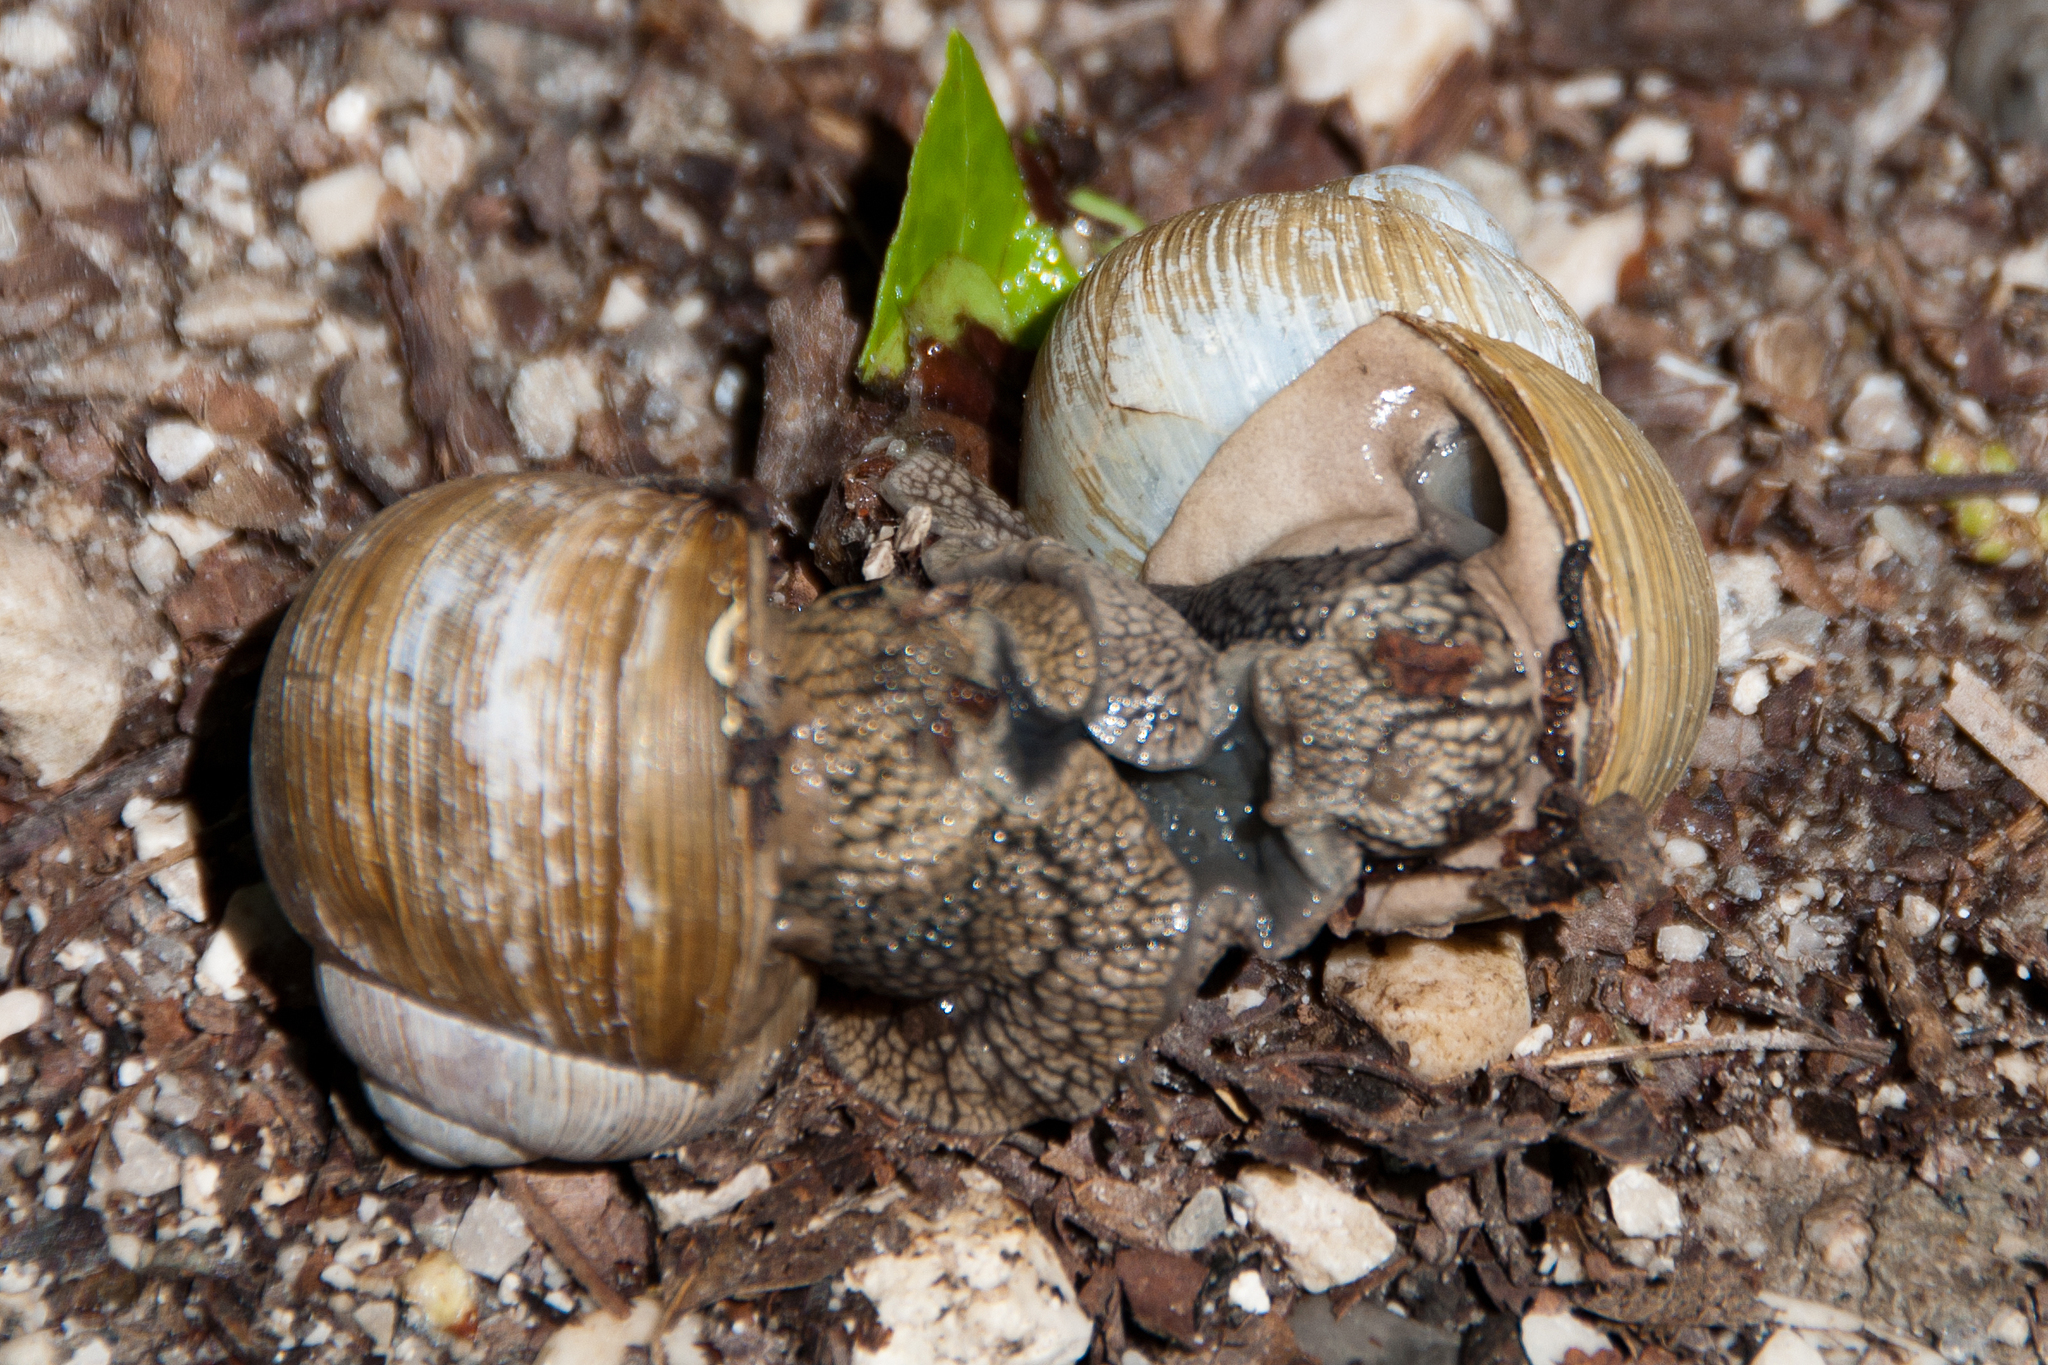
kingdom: Animalia
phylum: Mollusca
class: Gastropoda
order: Stylommatophora
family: Helicidae
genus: Helix
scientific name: Helix pomatia
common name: Roman snail
